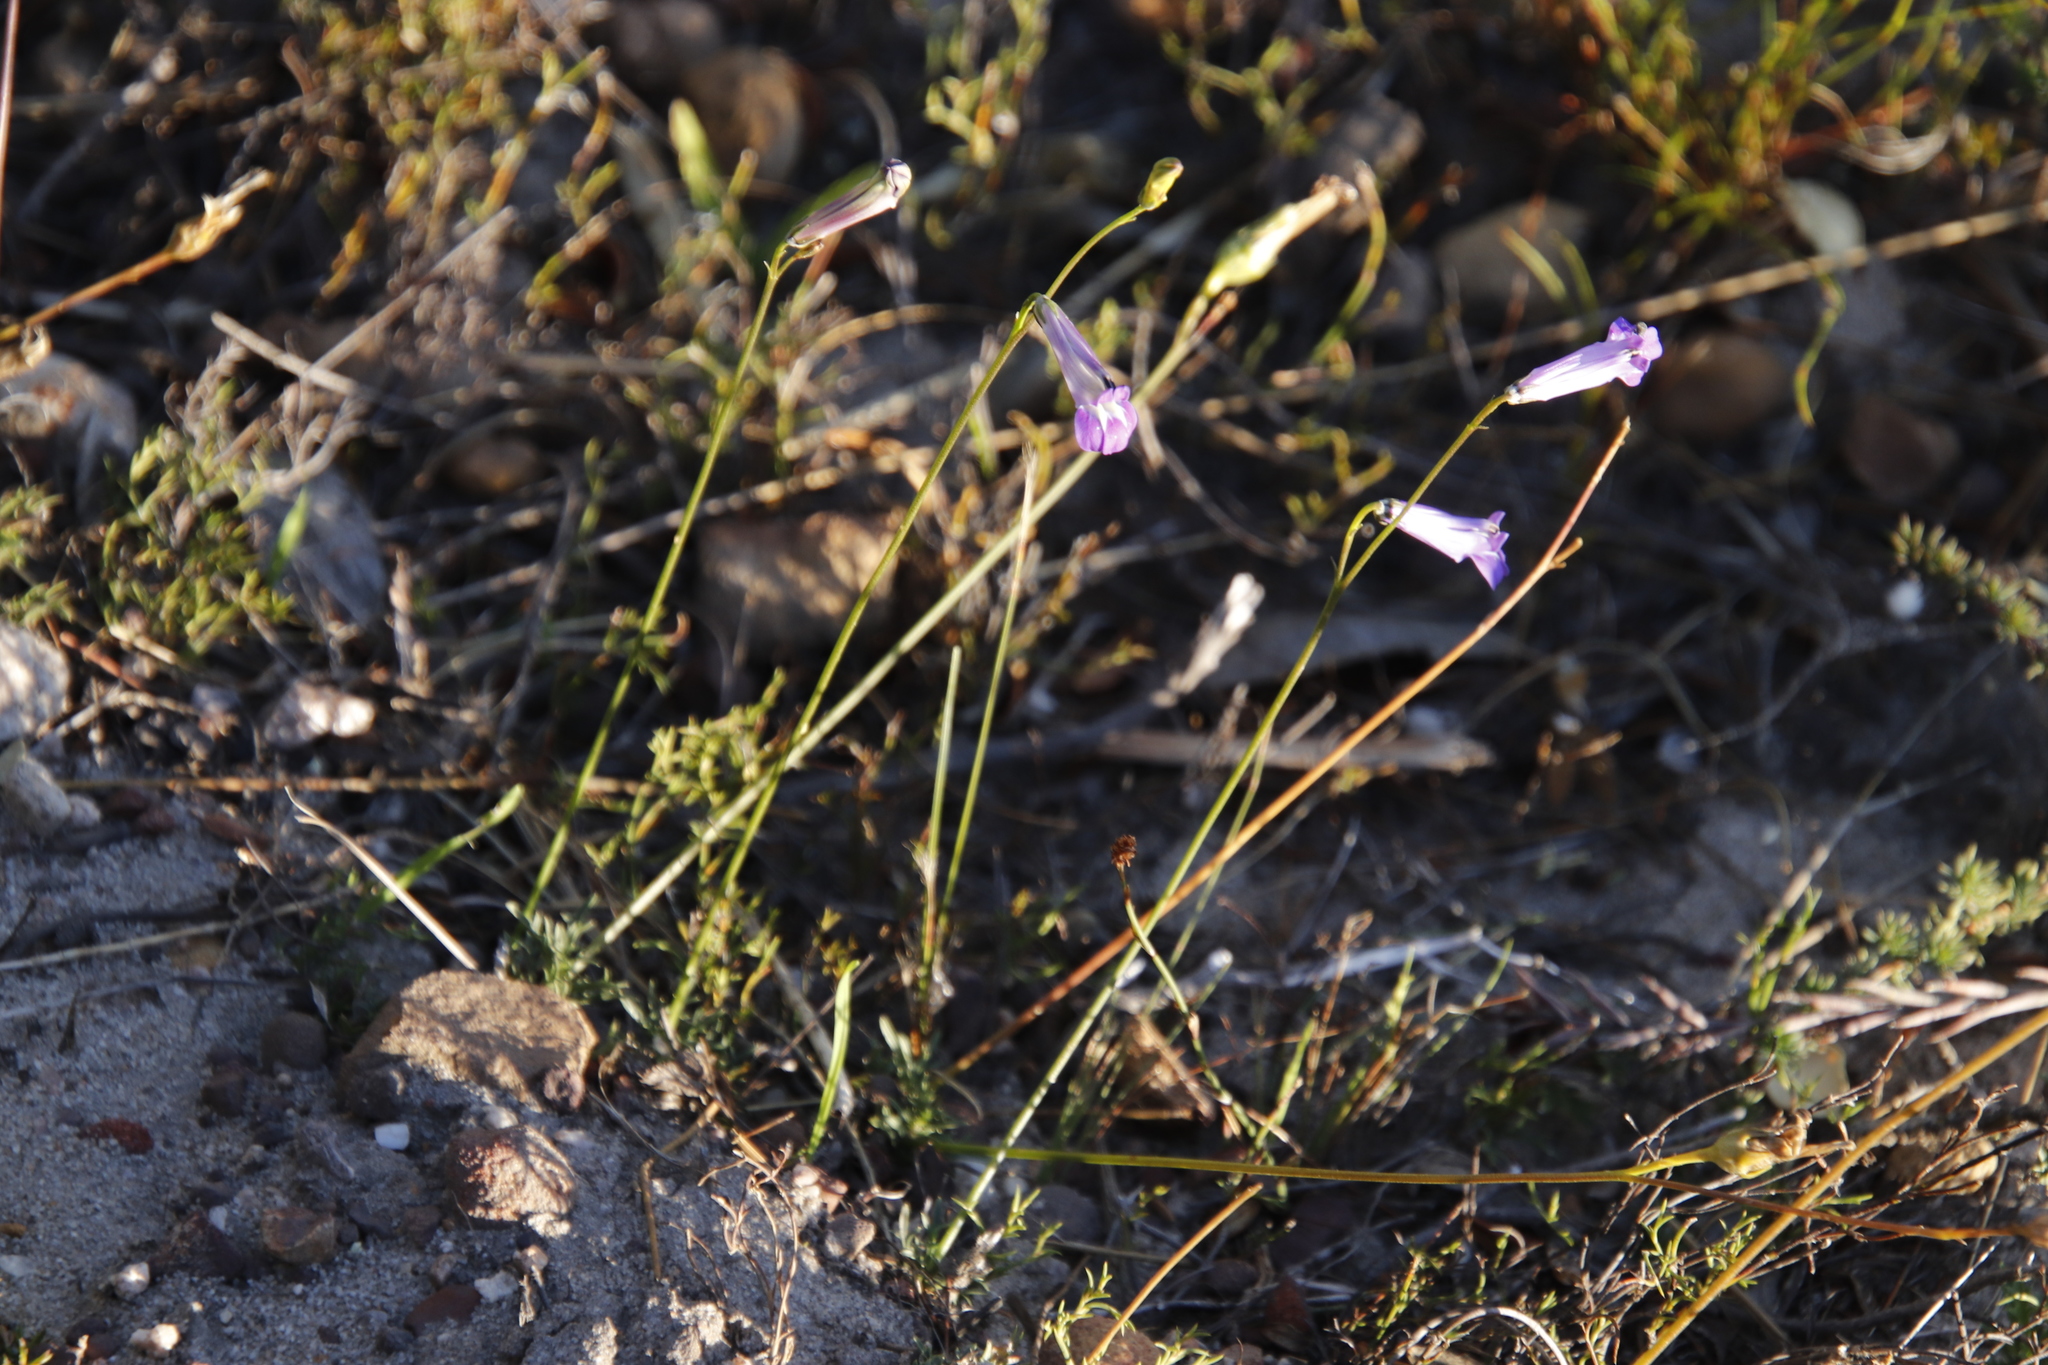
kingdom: Plantae
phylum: Tracheophyta
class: Magnoliopsida
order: Asterales
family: Campanulaceae
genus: Lobelia
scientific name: Lobelia coronopifolia
